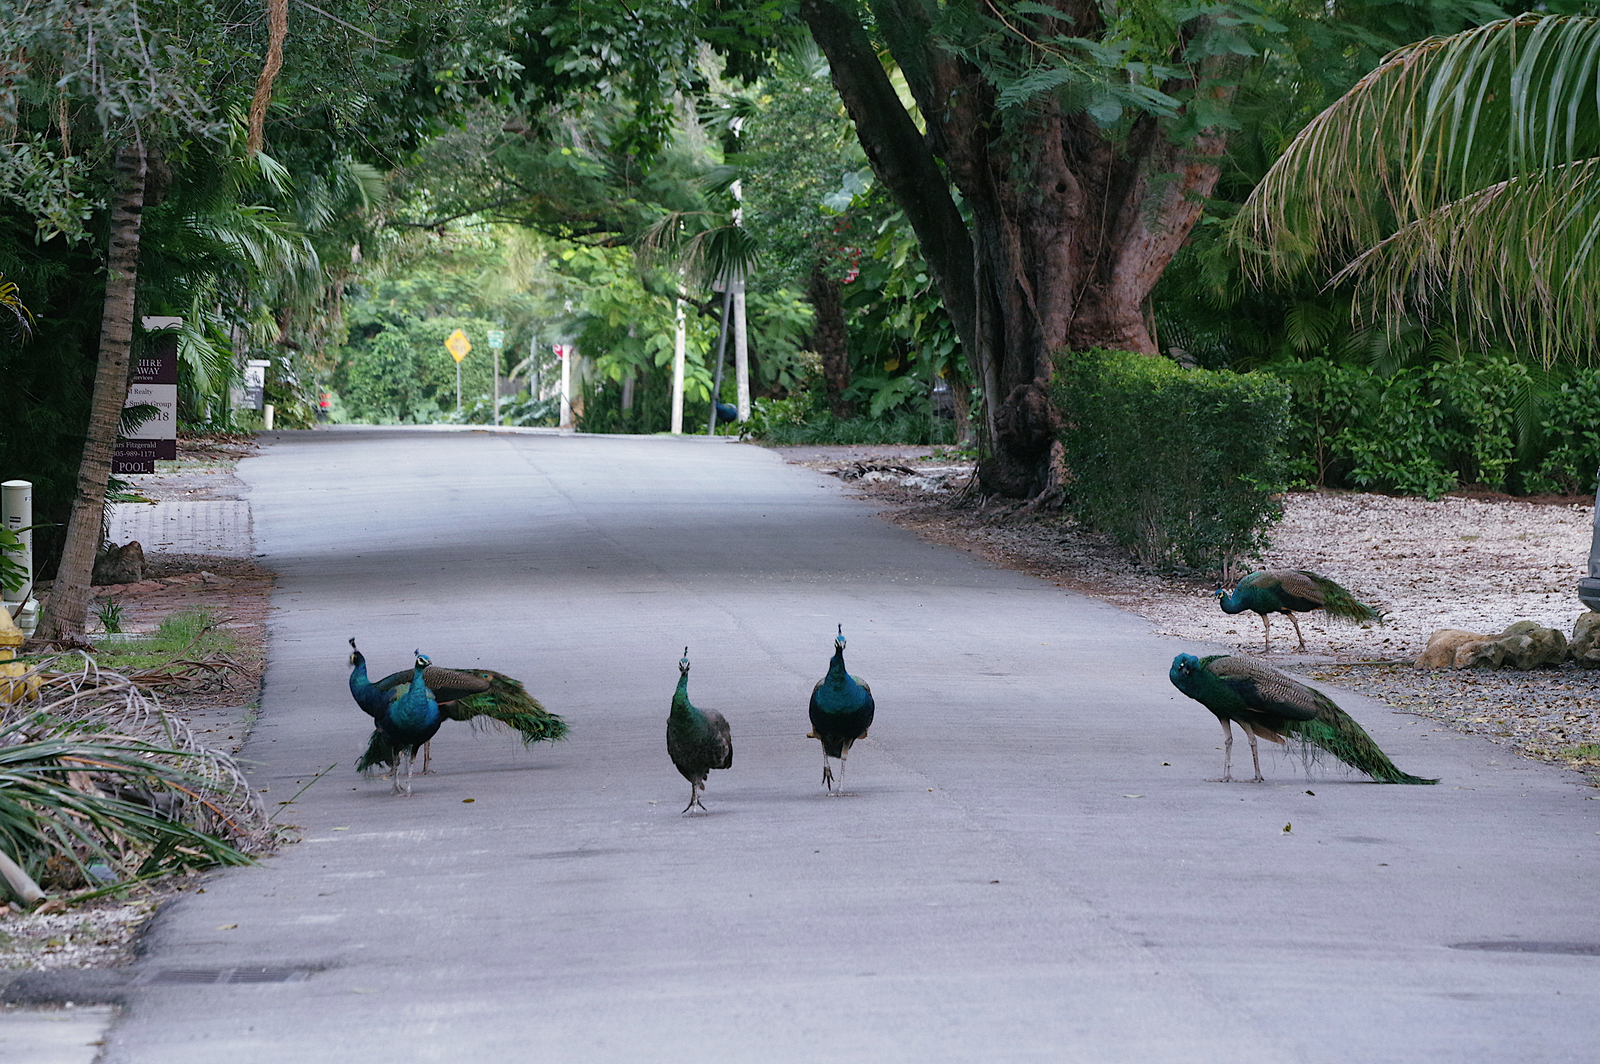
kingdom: Animalia
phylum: Chordata
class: Aves
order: Galliformes
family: Phasianidae
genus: Pavo
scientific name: Pavo cristatus
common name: Indian peafowl
